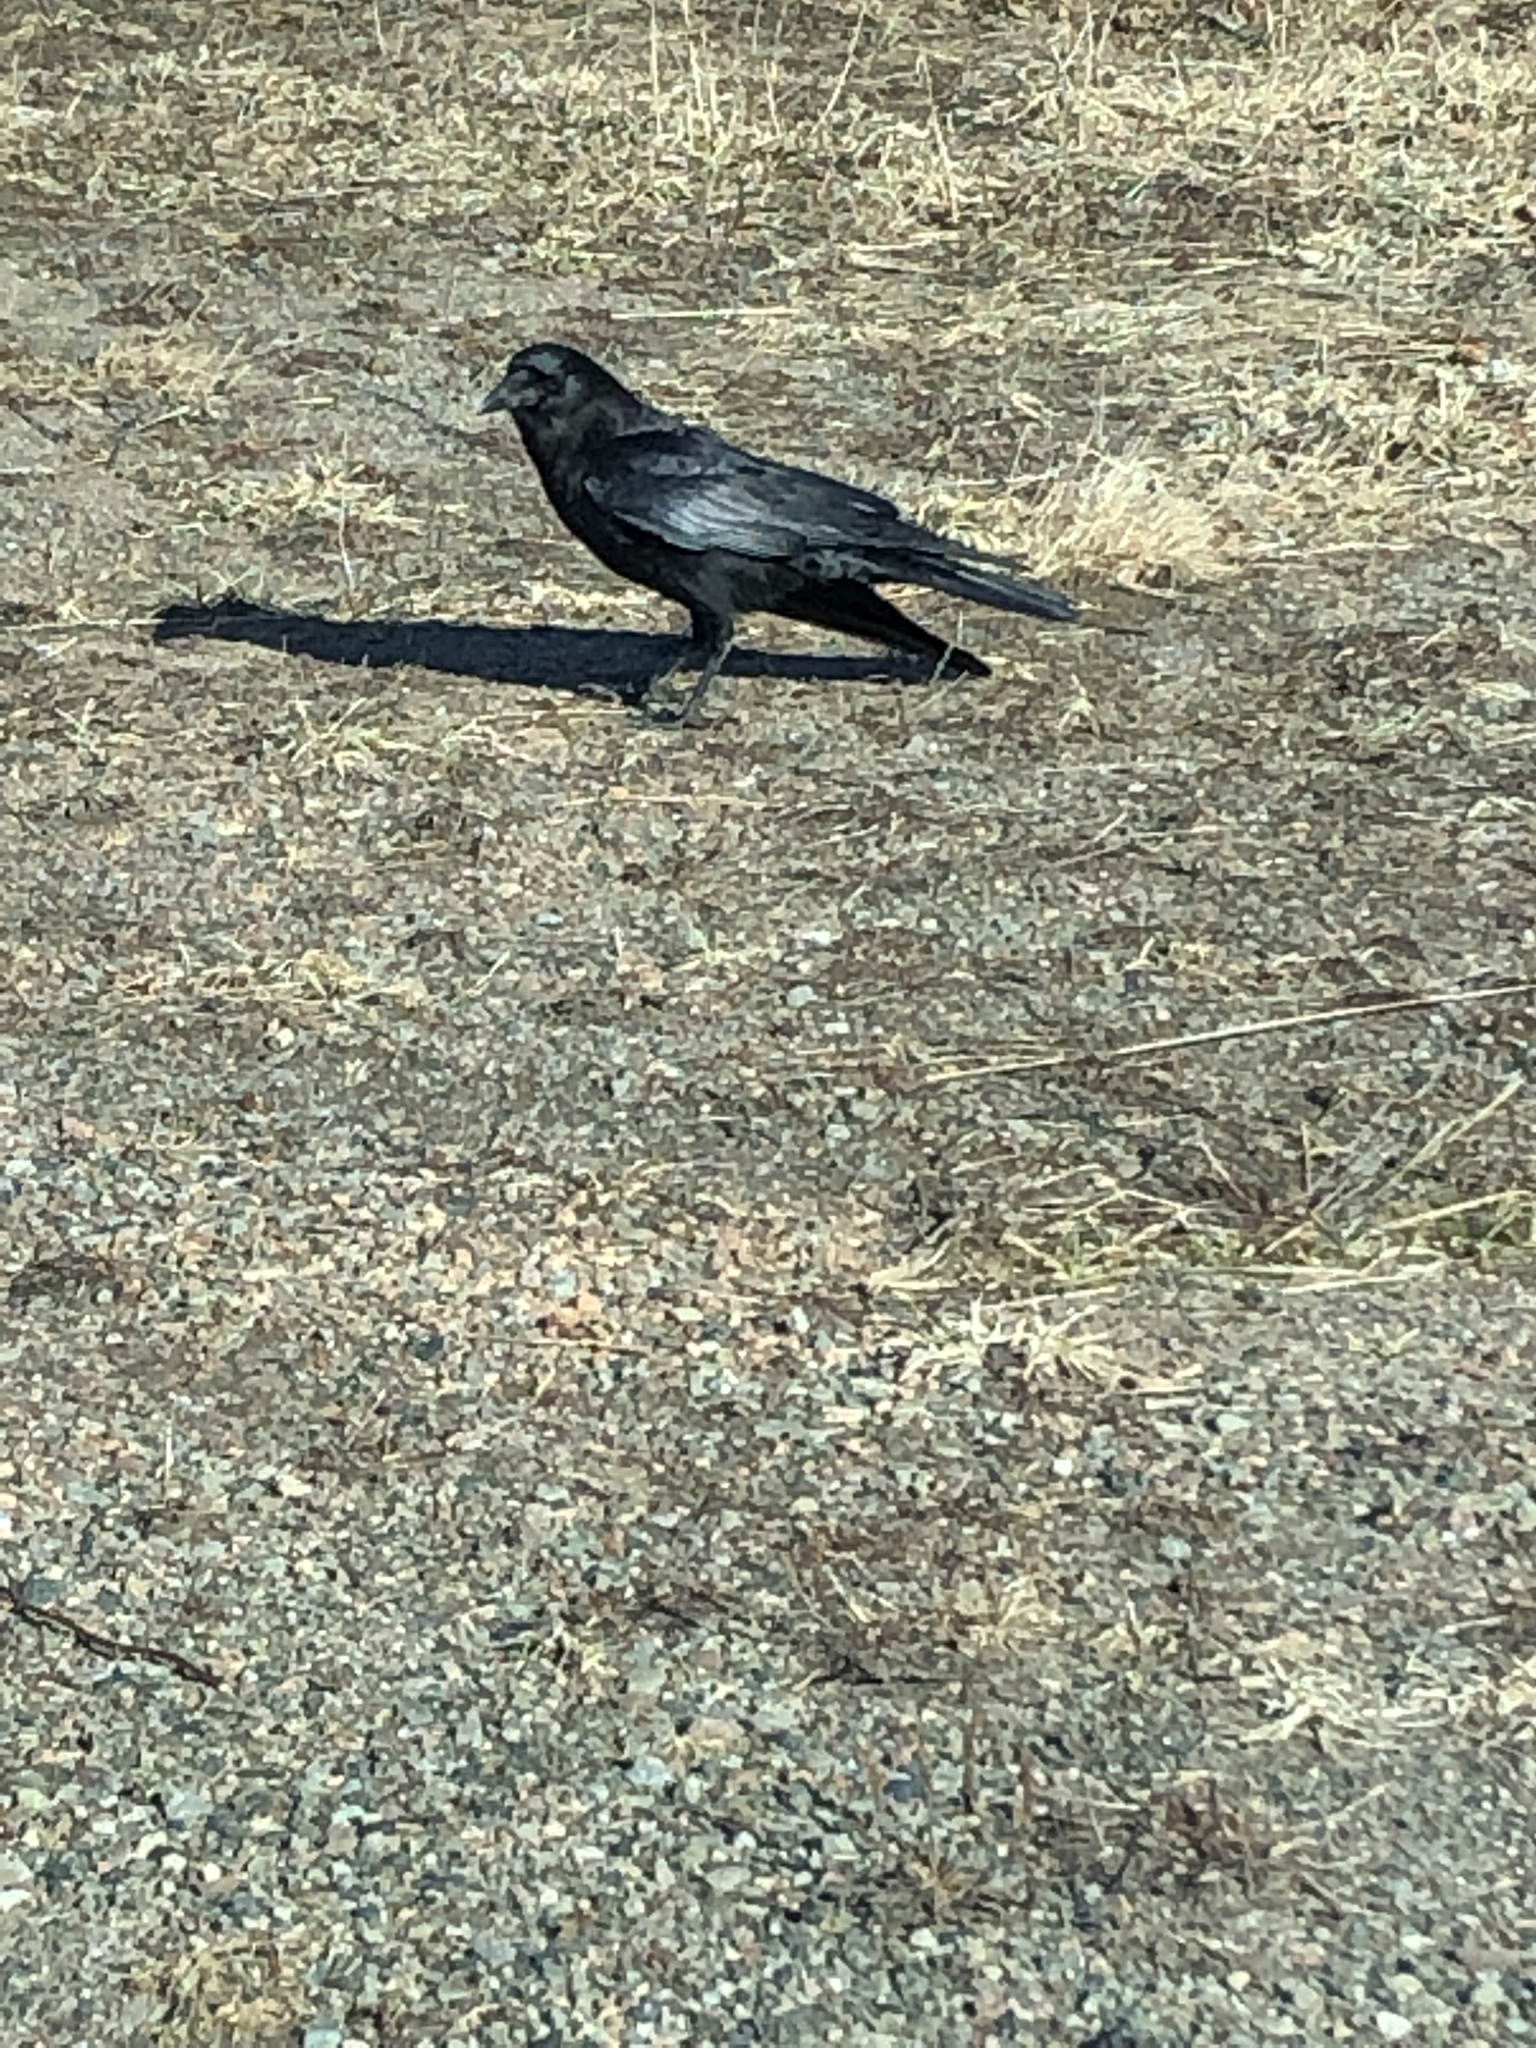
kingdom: Animalia
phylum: Chordata
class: Aves
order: Passeriformes
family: Corvidae
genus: Corvus
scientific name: Corvus brachyrhynchos
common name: American crow
